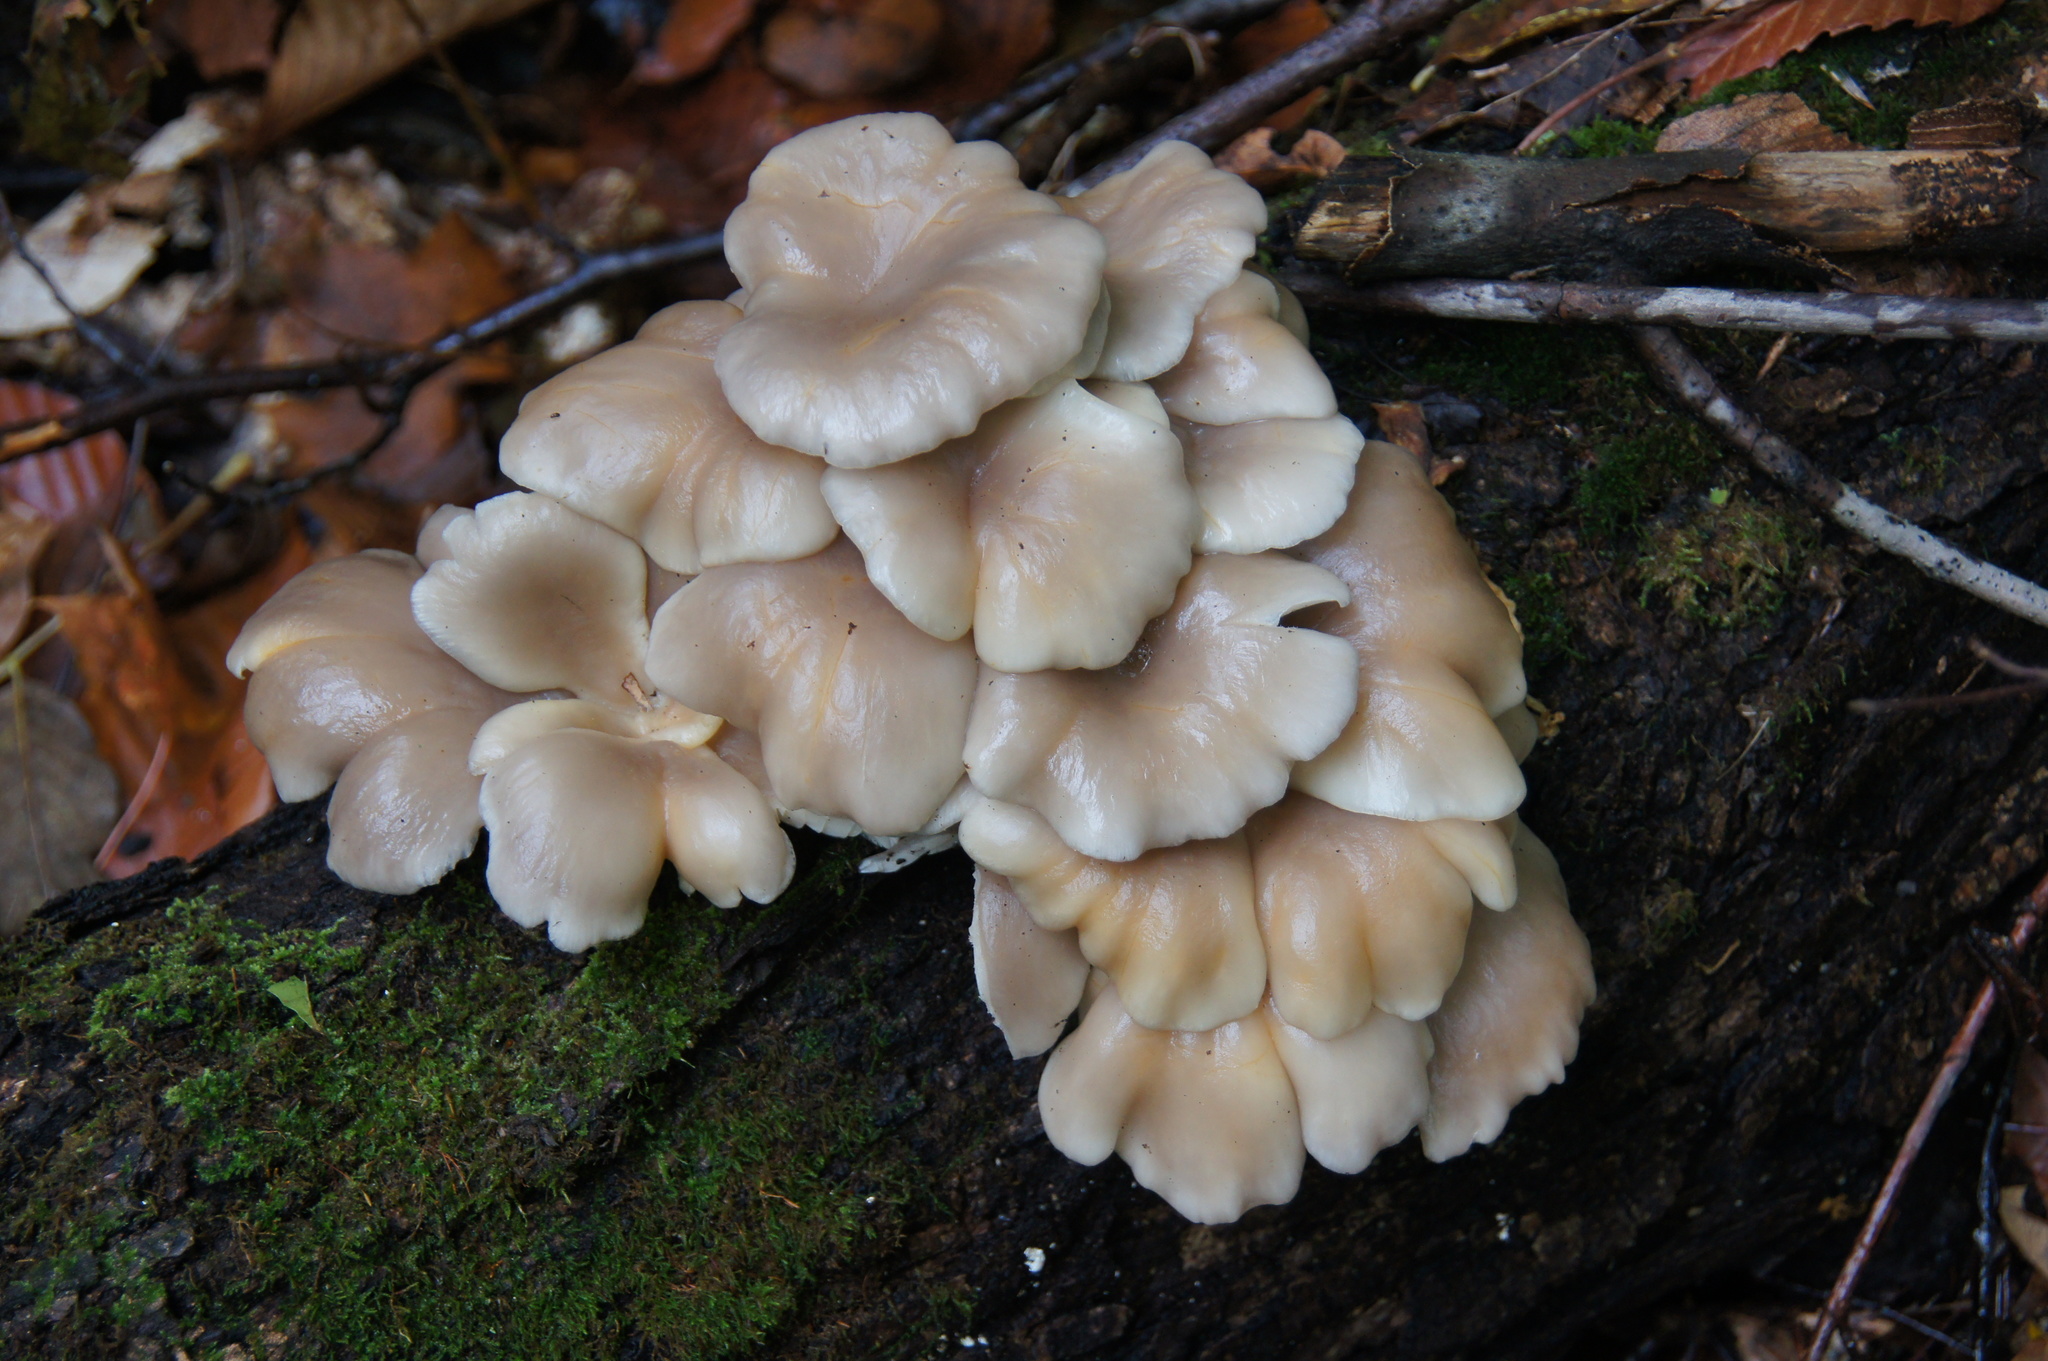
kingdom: Fungi
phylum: Basidiomycota
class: Agaricomycetes
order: Agaricales
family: Pleurotaceae
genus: Pleurotus
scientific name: Pleurotus ostreatus
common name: Oyster mushroom
